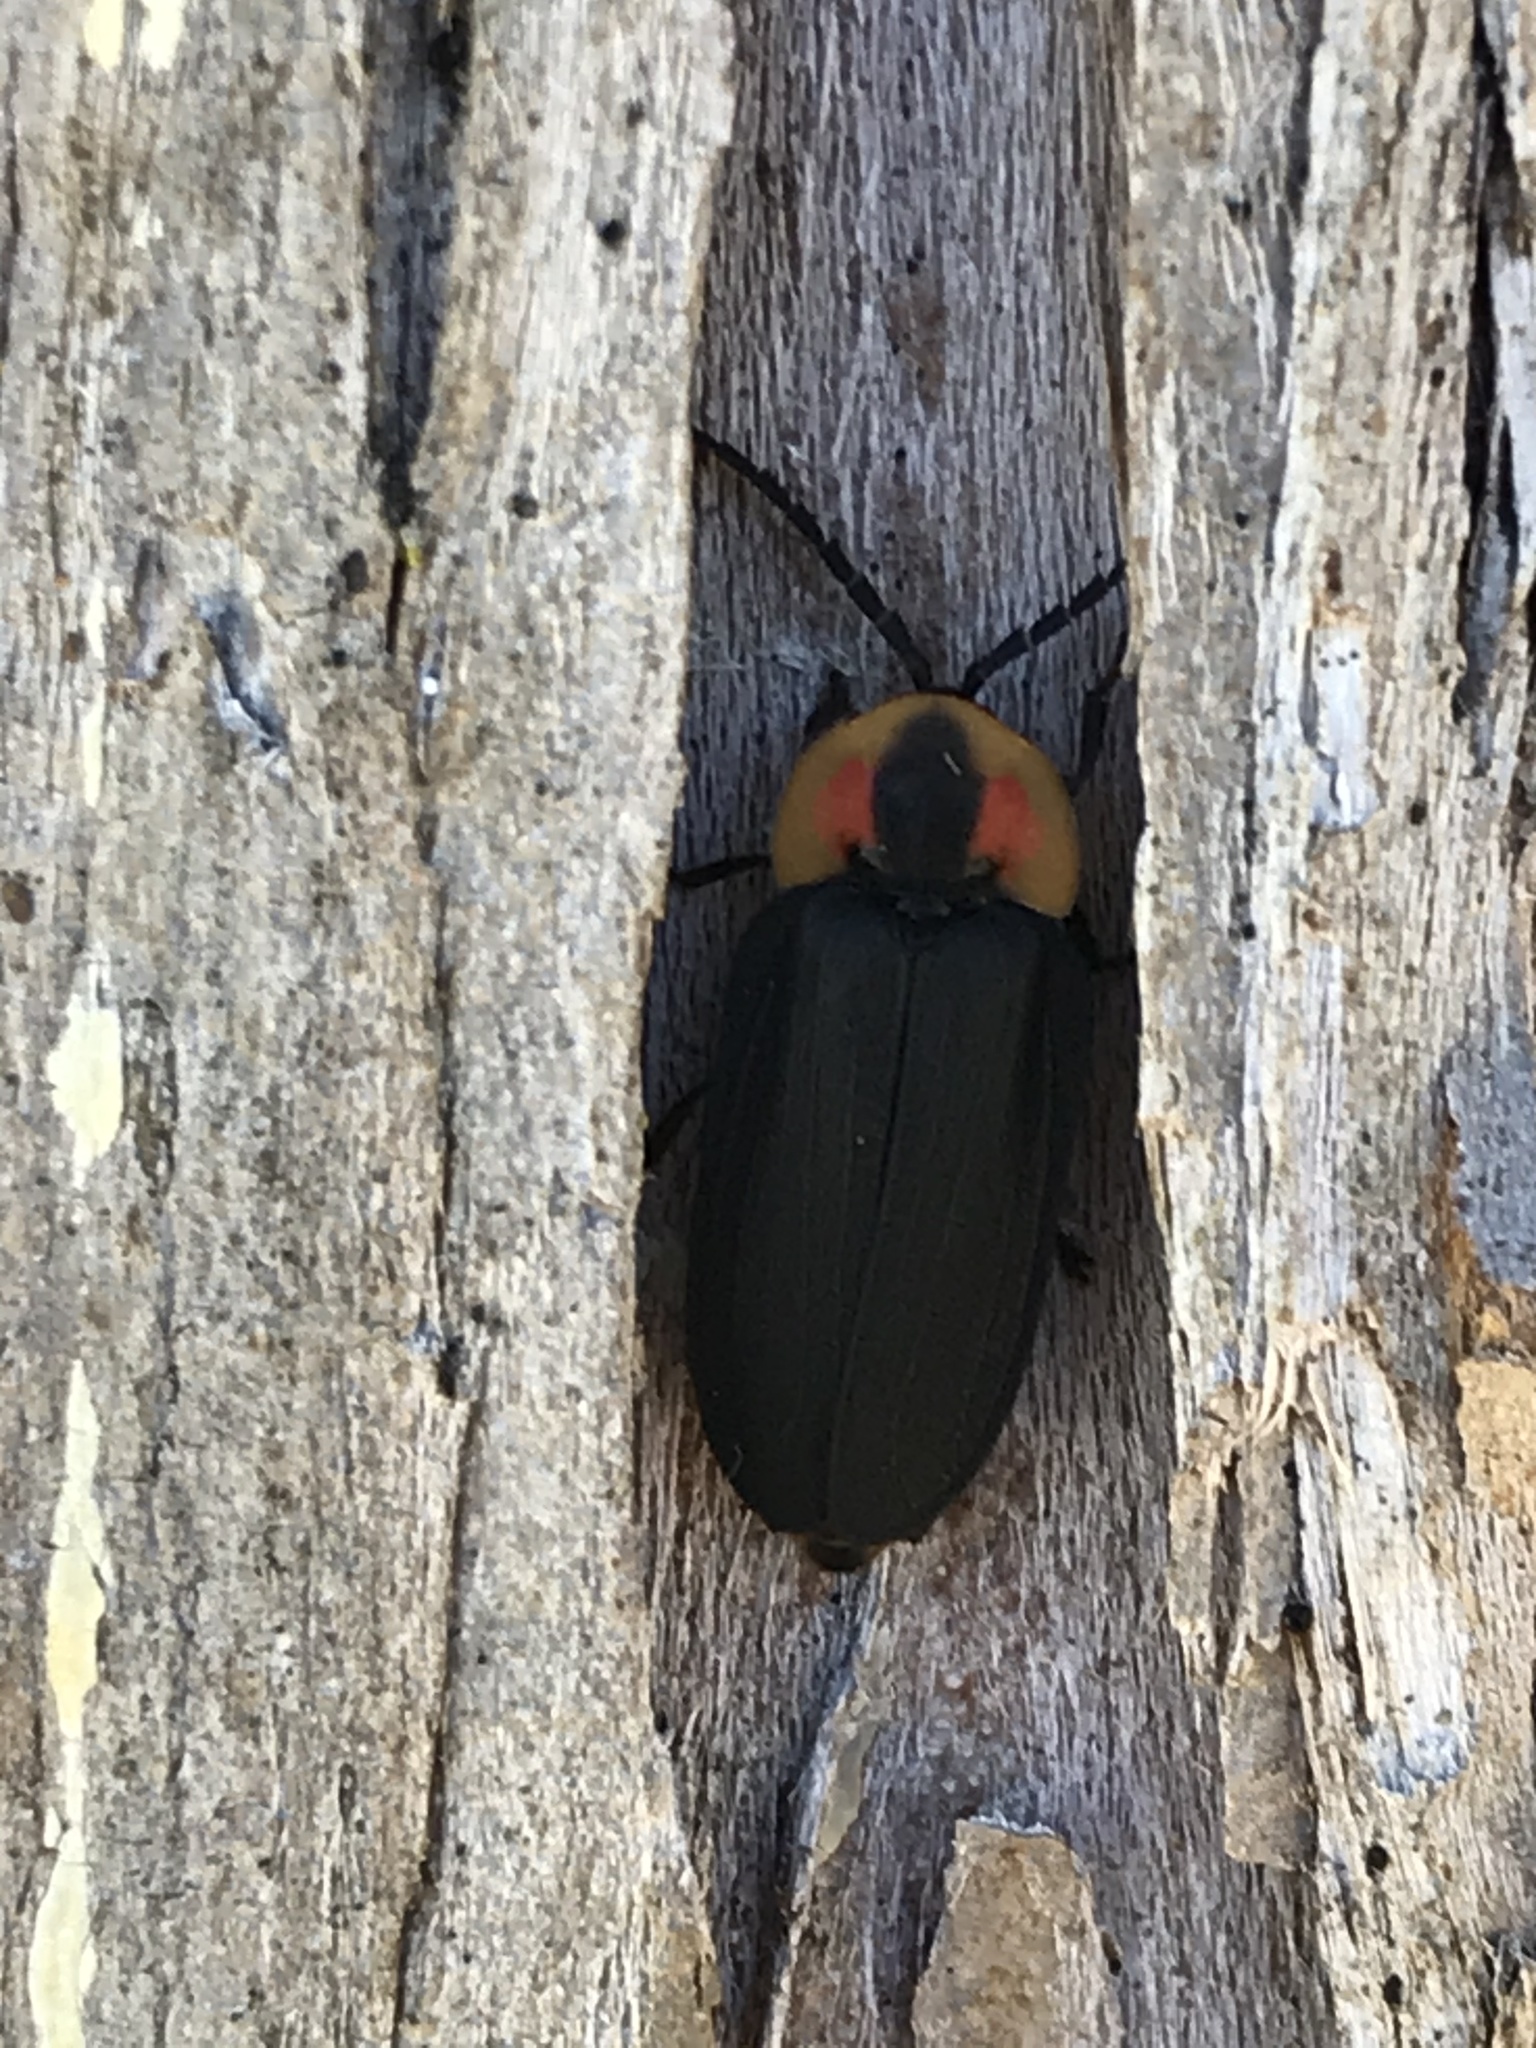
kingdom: Animalia
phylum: Arthropoda
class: Insecta
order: Coleoptera
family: Lampyridae
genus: Lucidota
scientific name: Lucidota atra
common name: Black firefly
